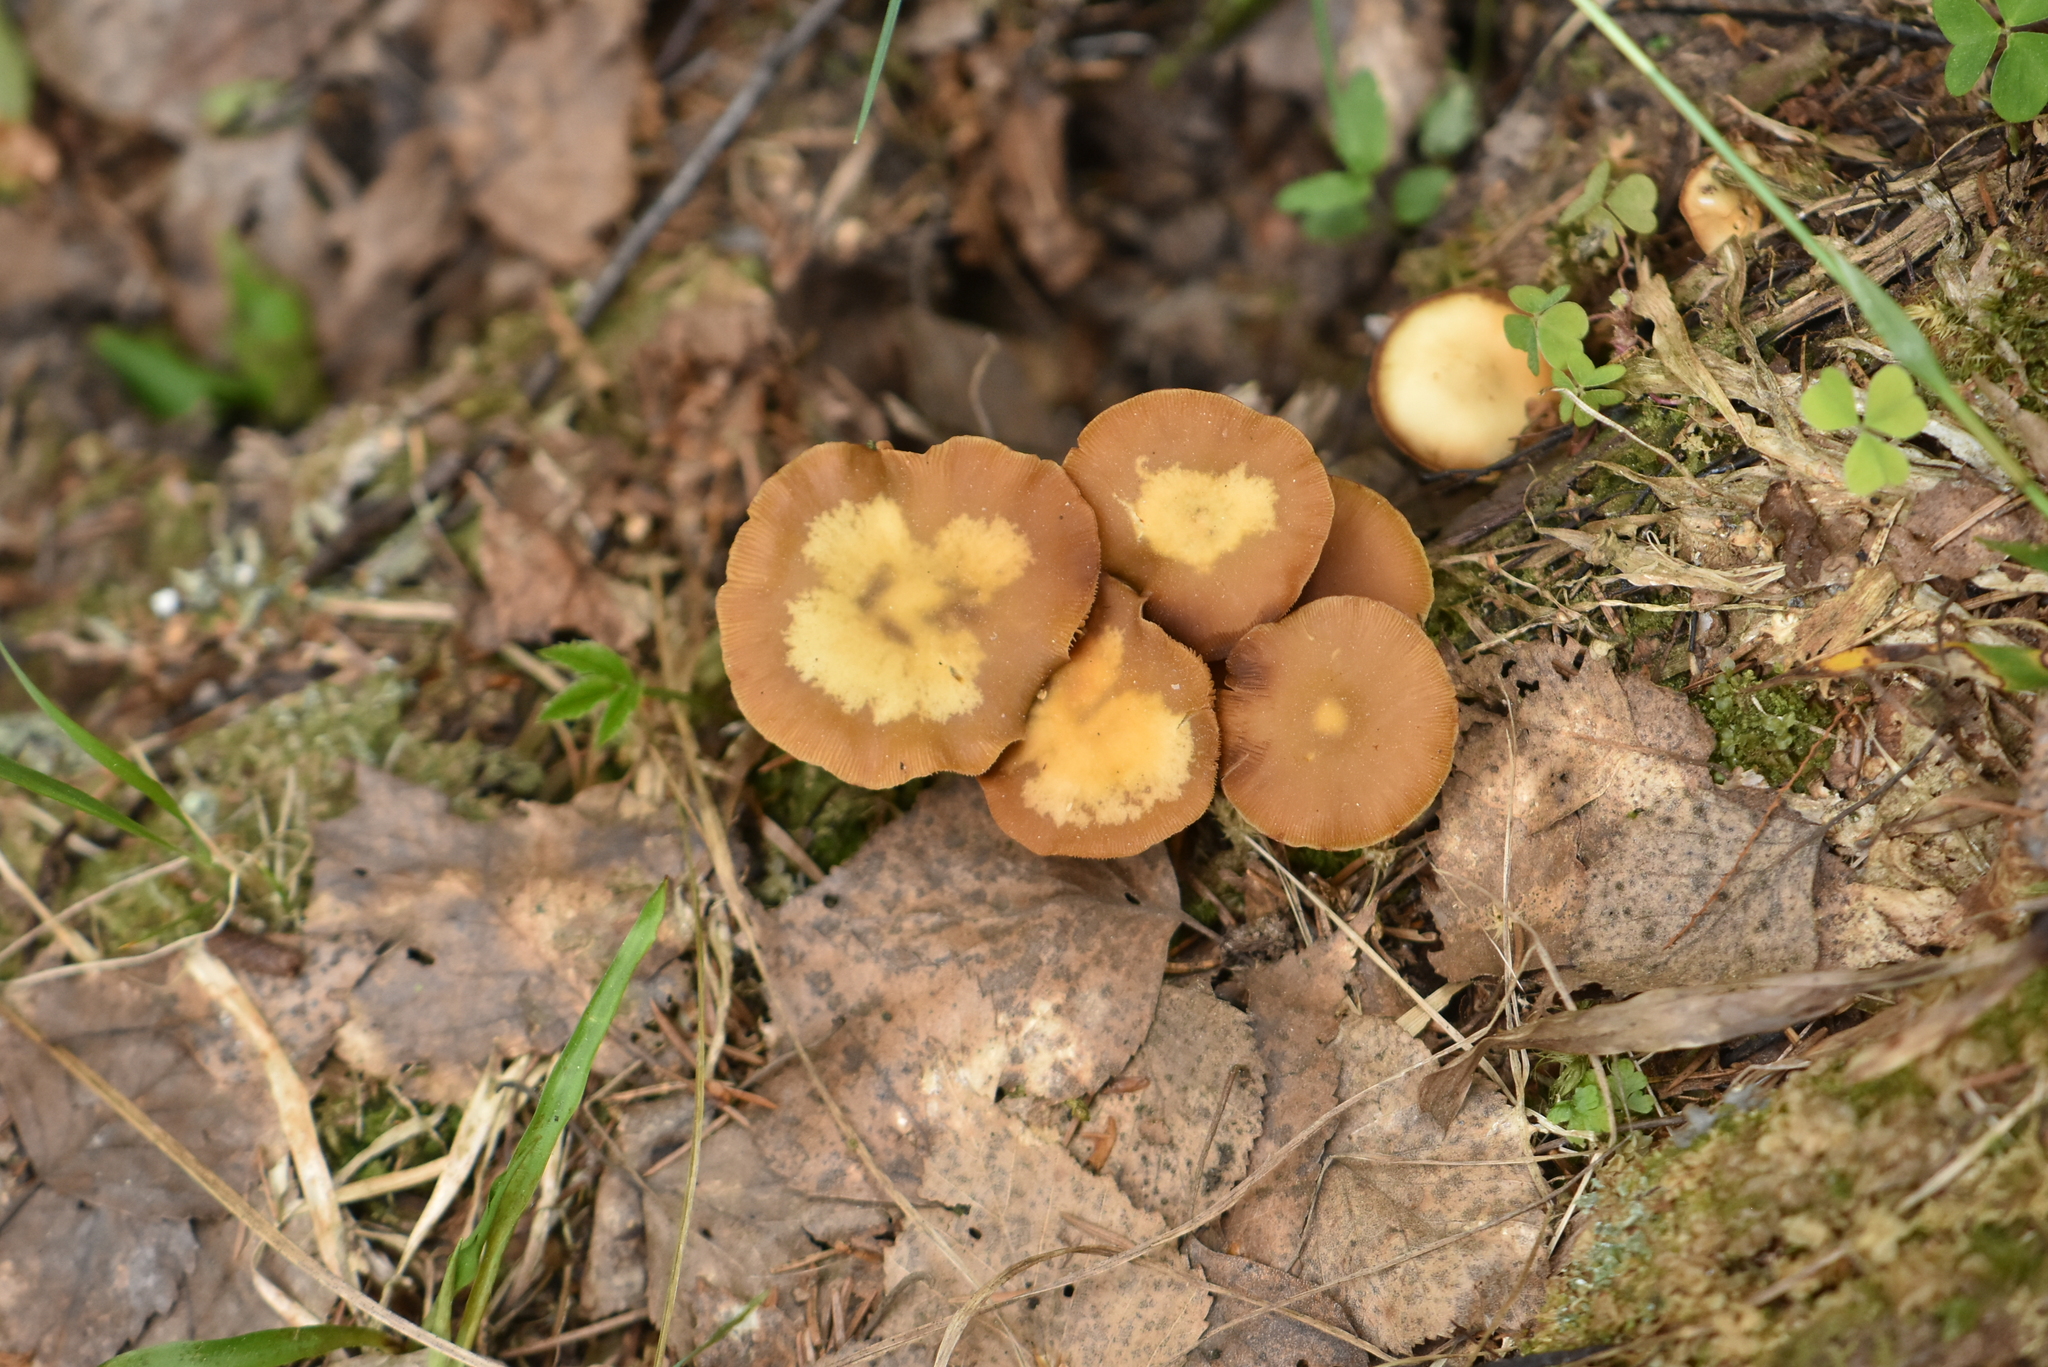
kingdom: Fungi
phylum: Basidiomycota
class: Agaricomycetes
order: Agaricales
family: Strophariaceae
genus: Kuehneromyces
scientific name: Kuehneromyces mutabilis
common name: Sheathed woodtuft
